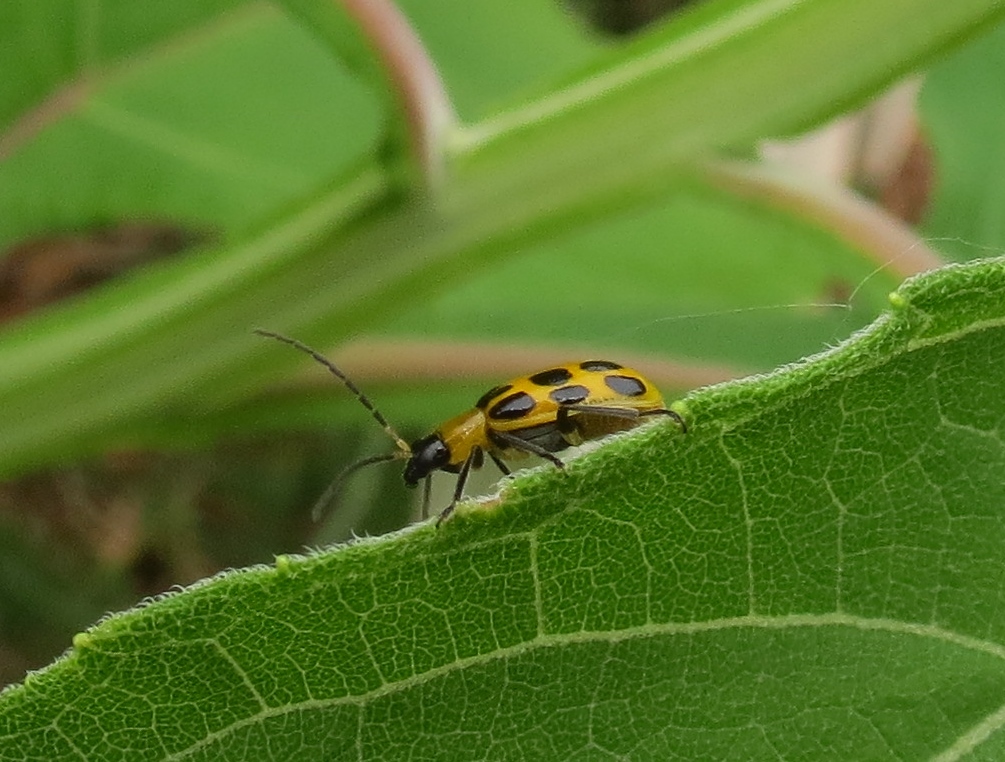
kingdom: Animalia
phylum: Arthropoda
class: Insecta
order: Coleoptera
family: Chrysomelidae
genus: Diabrotica
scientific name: Diabrotica undecimpunctata
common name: Spotted cucumber beetle
